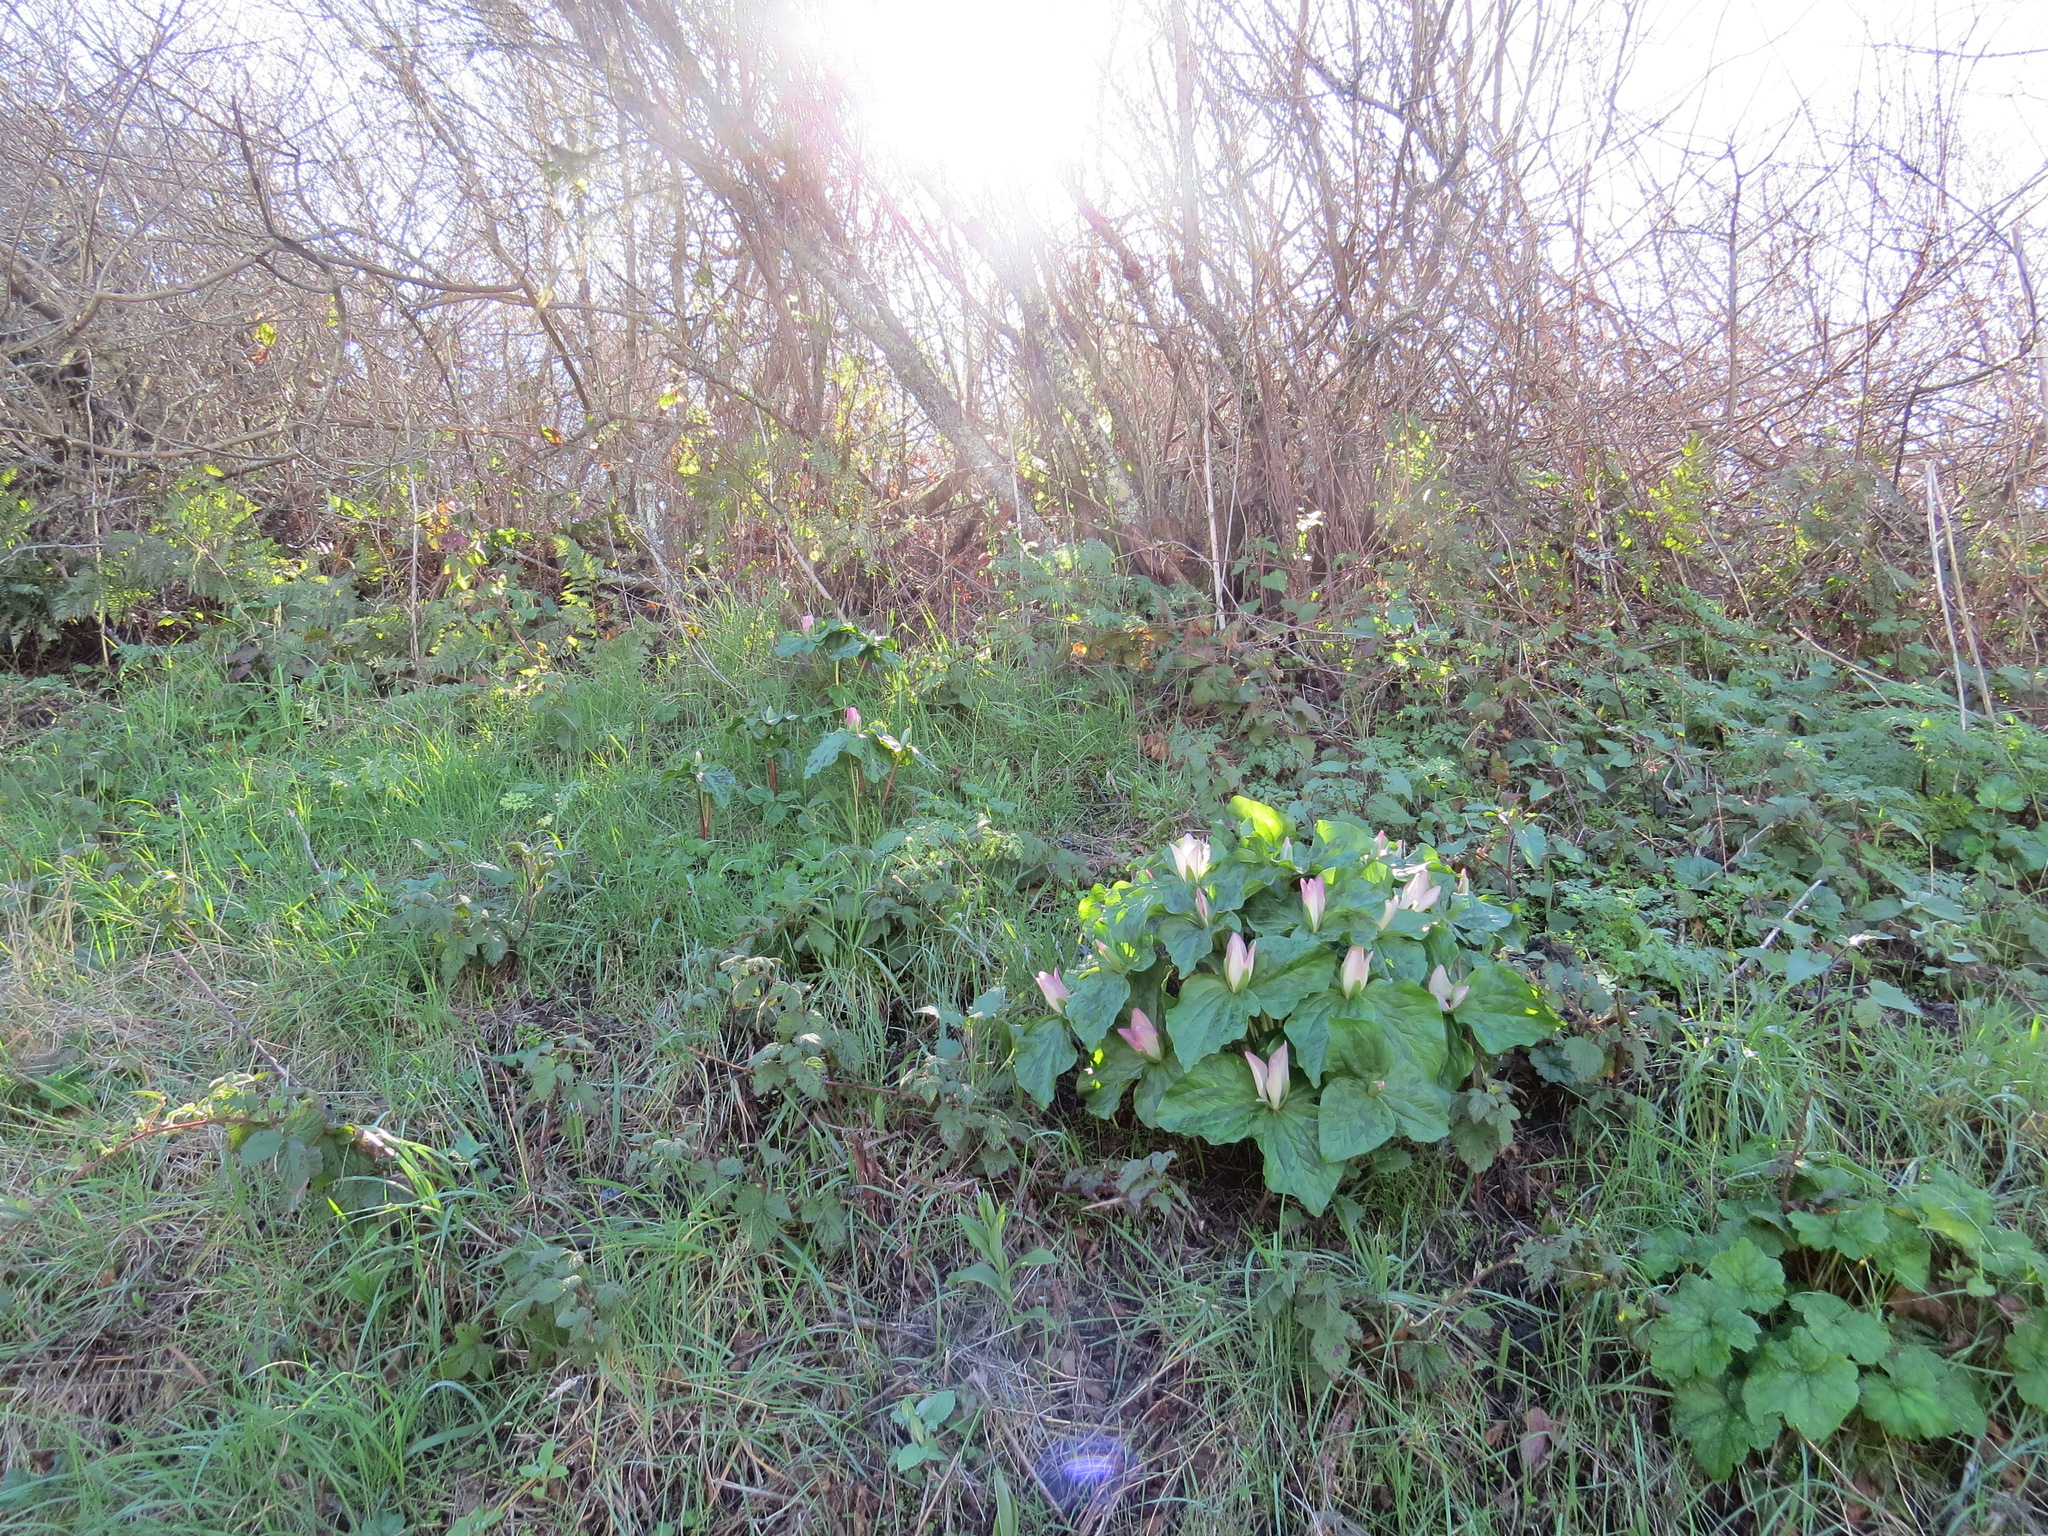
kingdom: Plantae
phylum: Tracheophyta
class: Liliopsida
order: Liliales
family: Melanthiaceae
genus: Trillium
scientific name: Trillium chloropetalum
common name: Giant trillium
